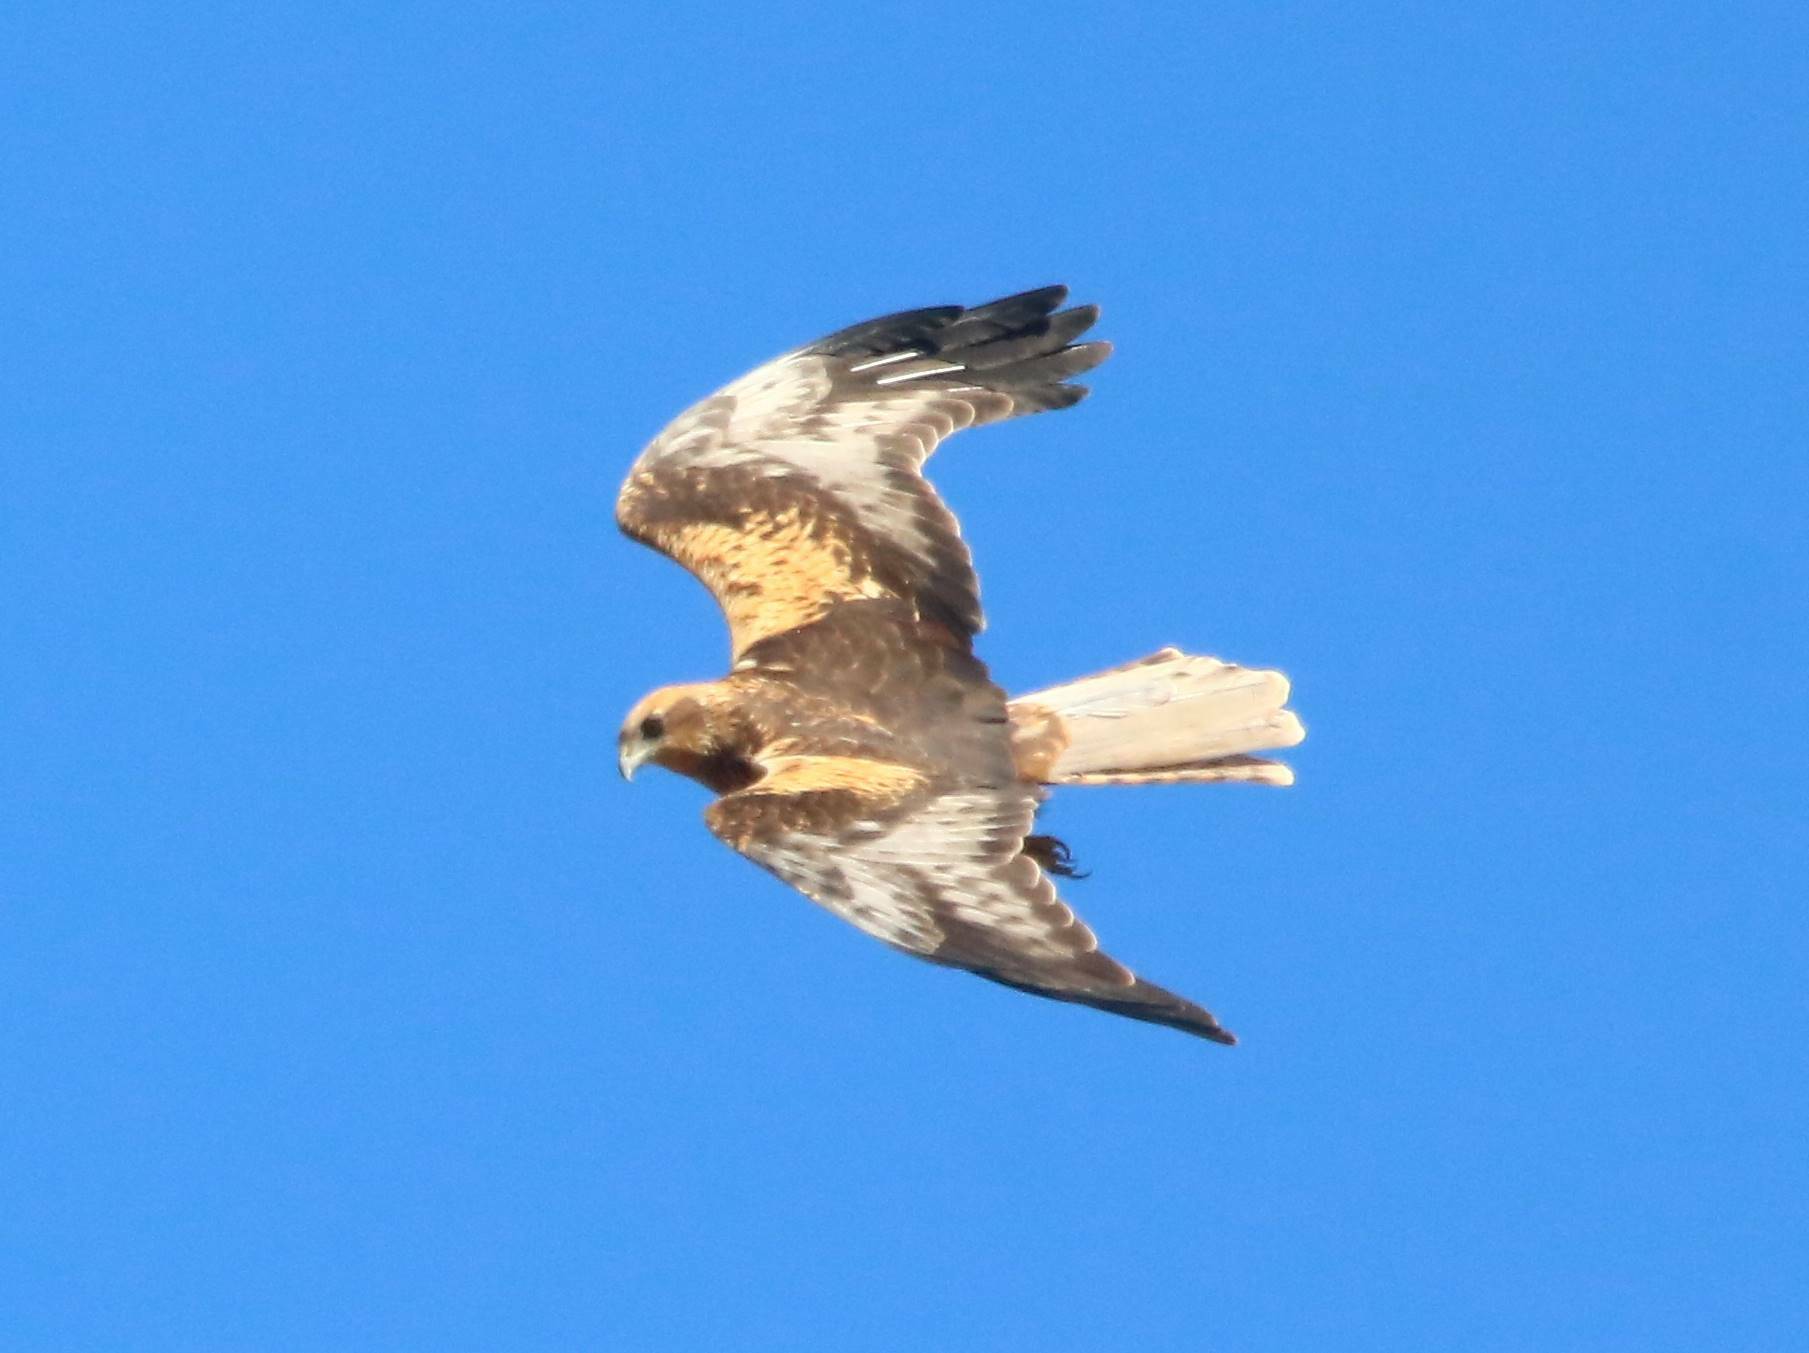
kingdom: Animalia
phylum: Chordata
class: Aves
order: Accipitriformes
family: Accipitridae
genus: Circus
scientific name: Circus aeruginosus
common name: Western marsh harrier
